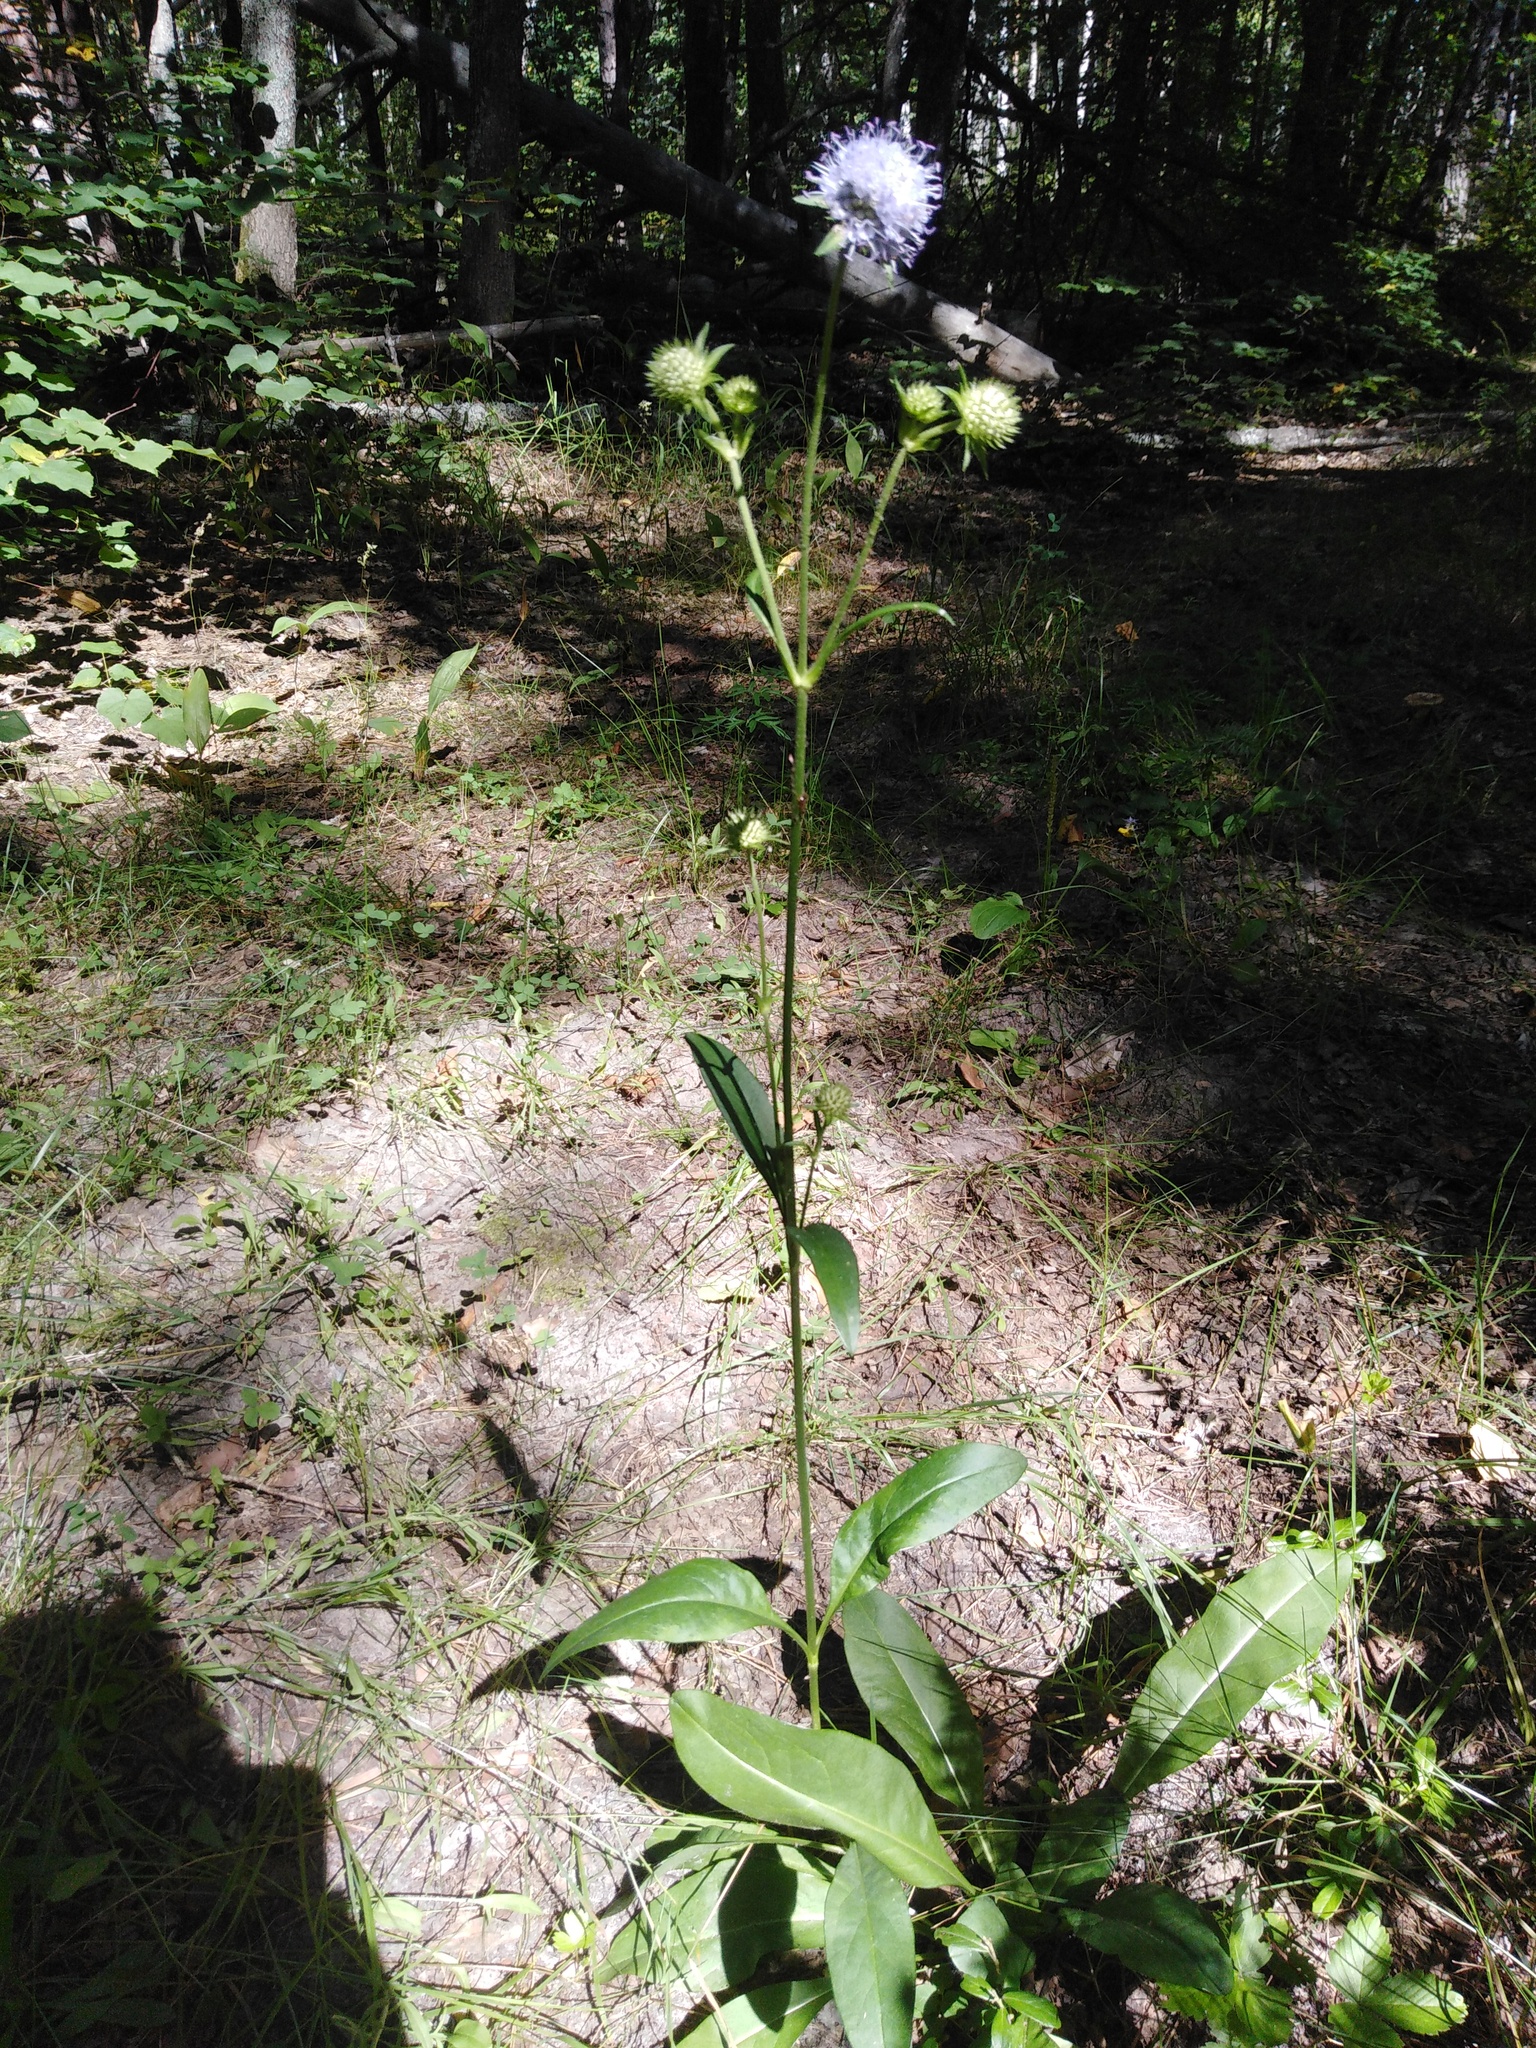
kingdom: Plantae
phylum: Tracheophyta
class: Magnoliopsida
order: Dipsacales
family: Caprifoliaceae
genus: Succisa
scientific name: Succisa pratensis
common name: Devil's-bit
